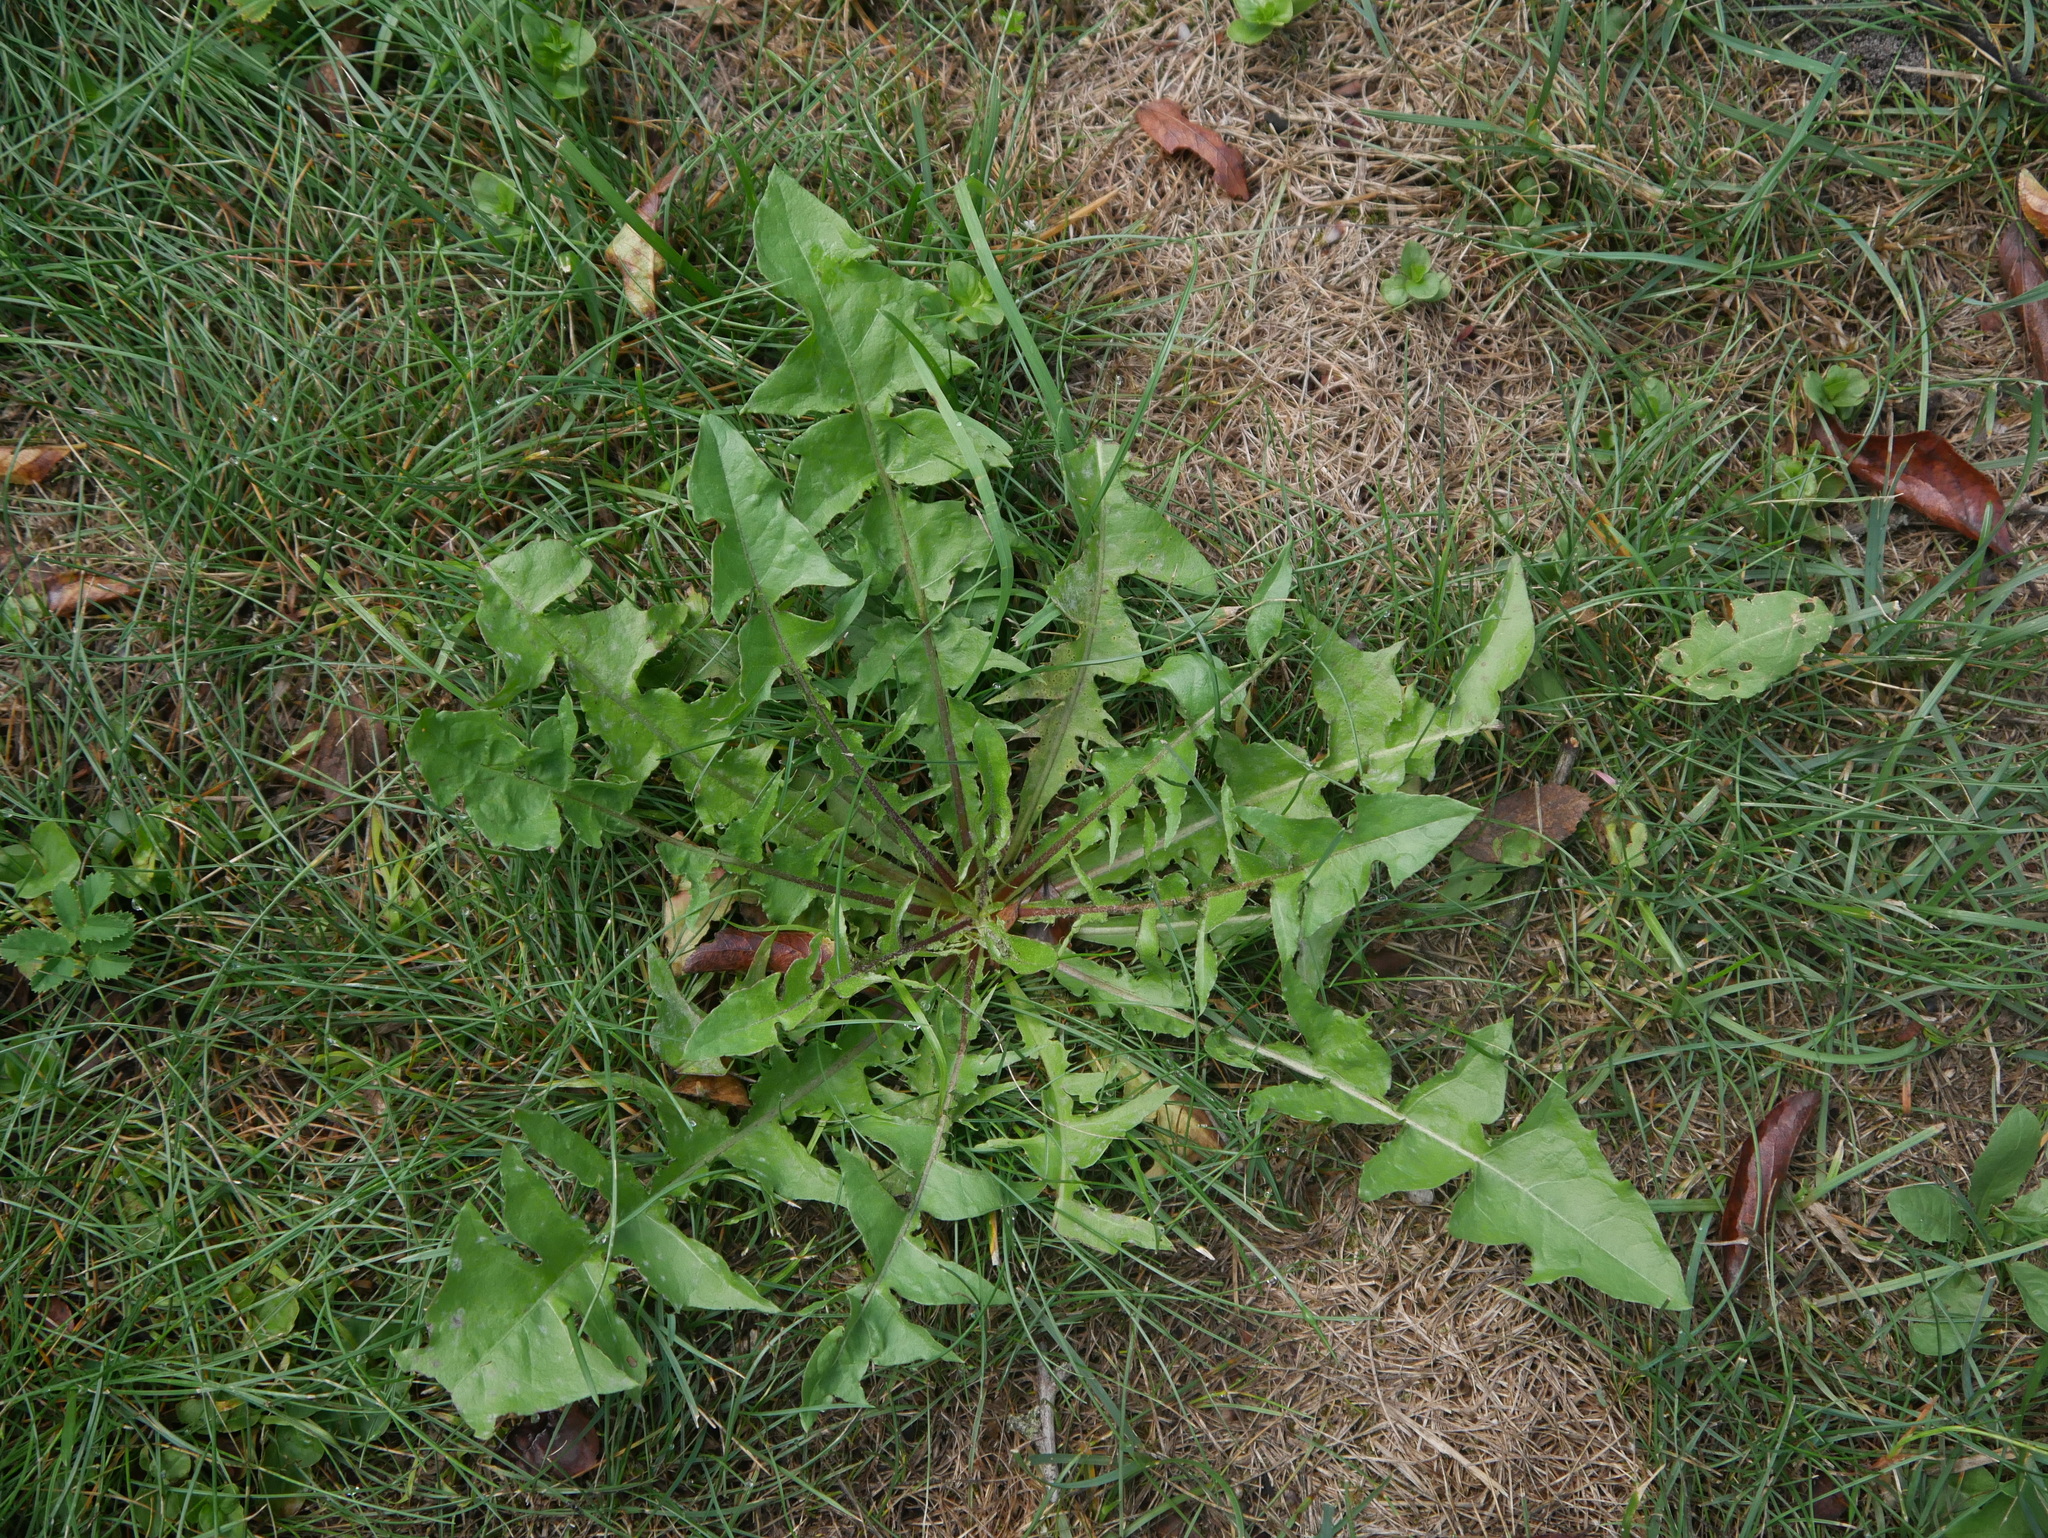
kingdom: Plantae
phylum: Tracheophyta
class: Magnoliopsida
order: Asterales
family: Asteraceae
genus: Taraxacum
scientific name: Taraxacum officinale
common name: Common dandelion
